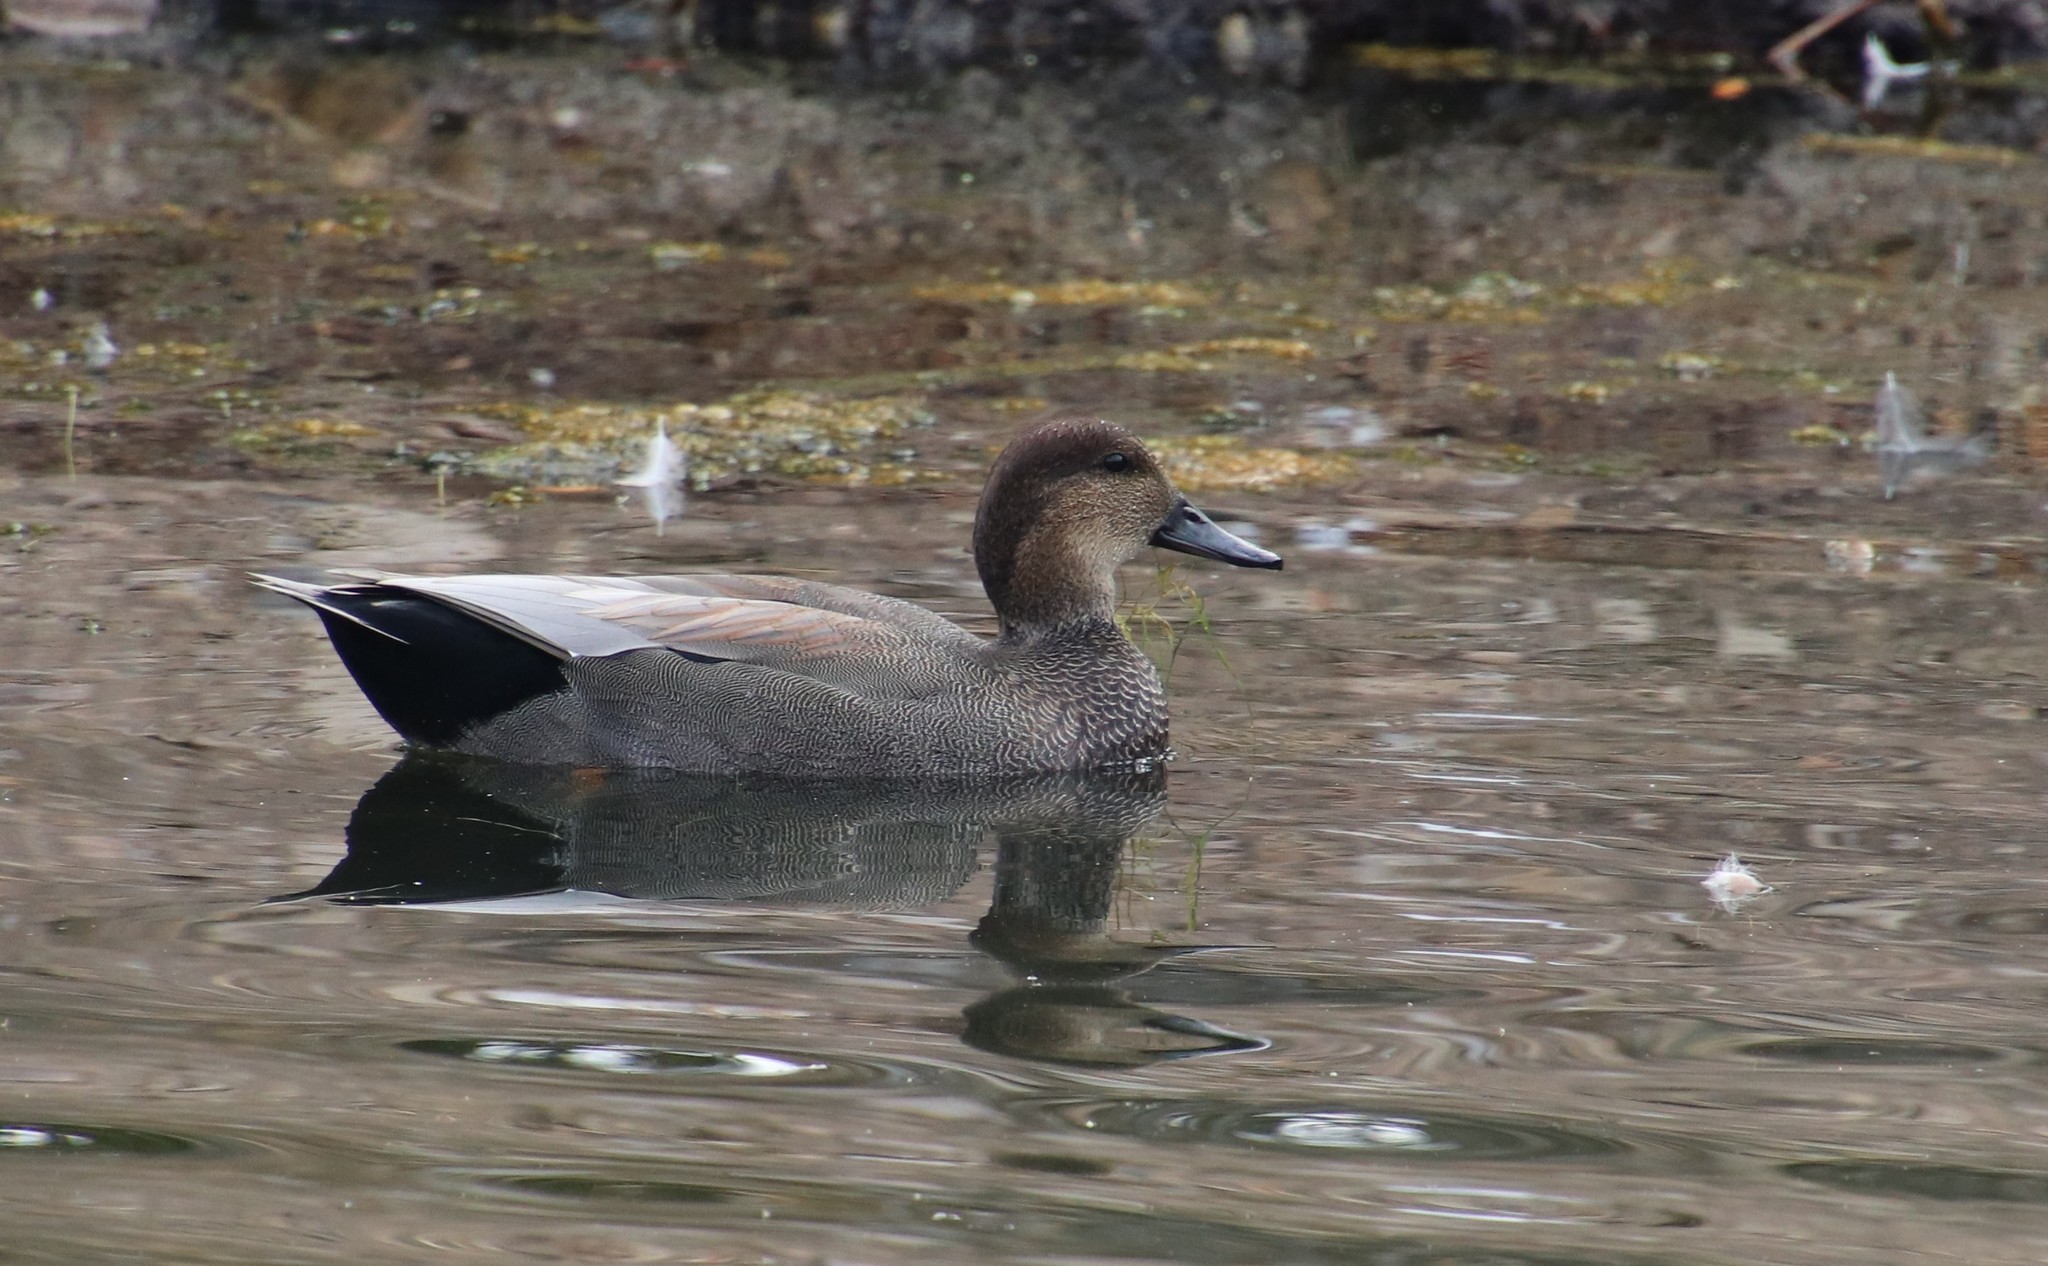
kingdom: Animalia
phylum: Chordata
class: Aves
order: Anseriformes
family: Anatidae
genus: Mareca
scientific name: Mareca strepera
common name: Gadwall
